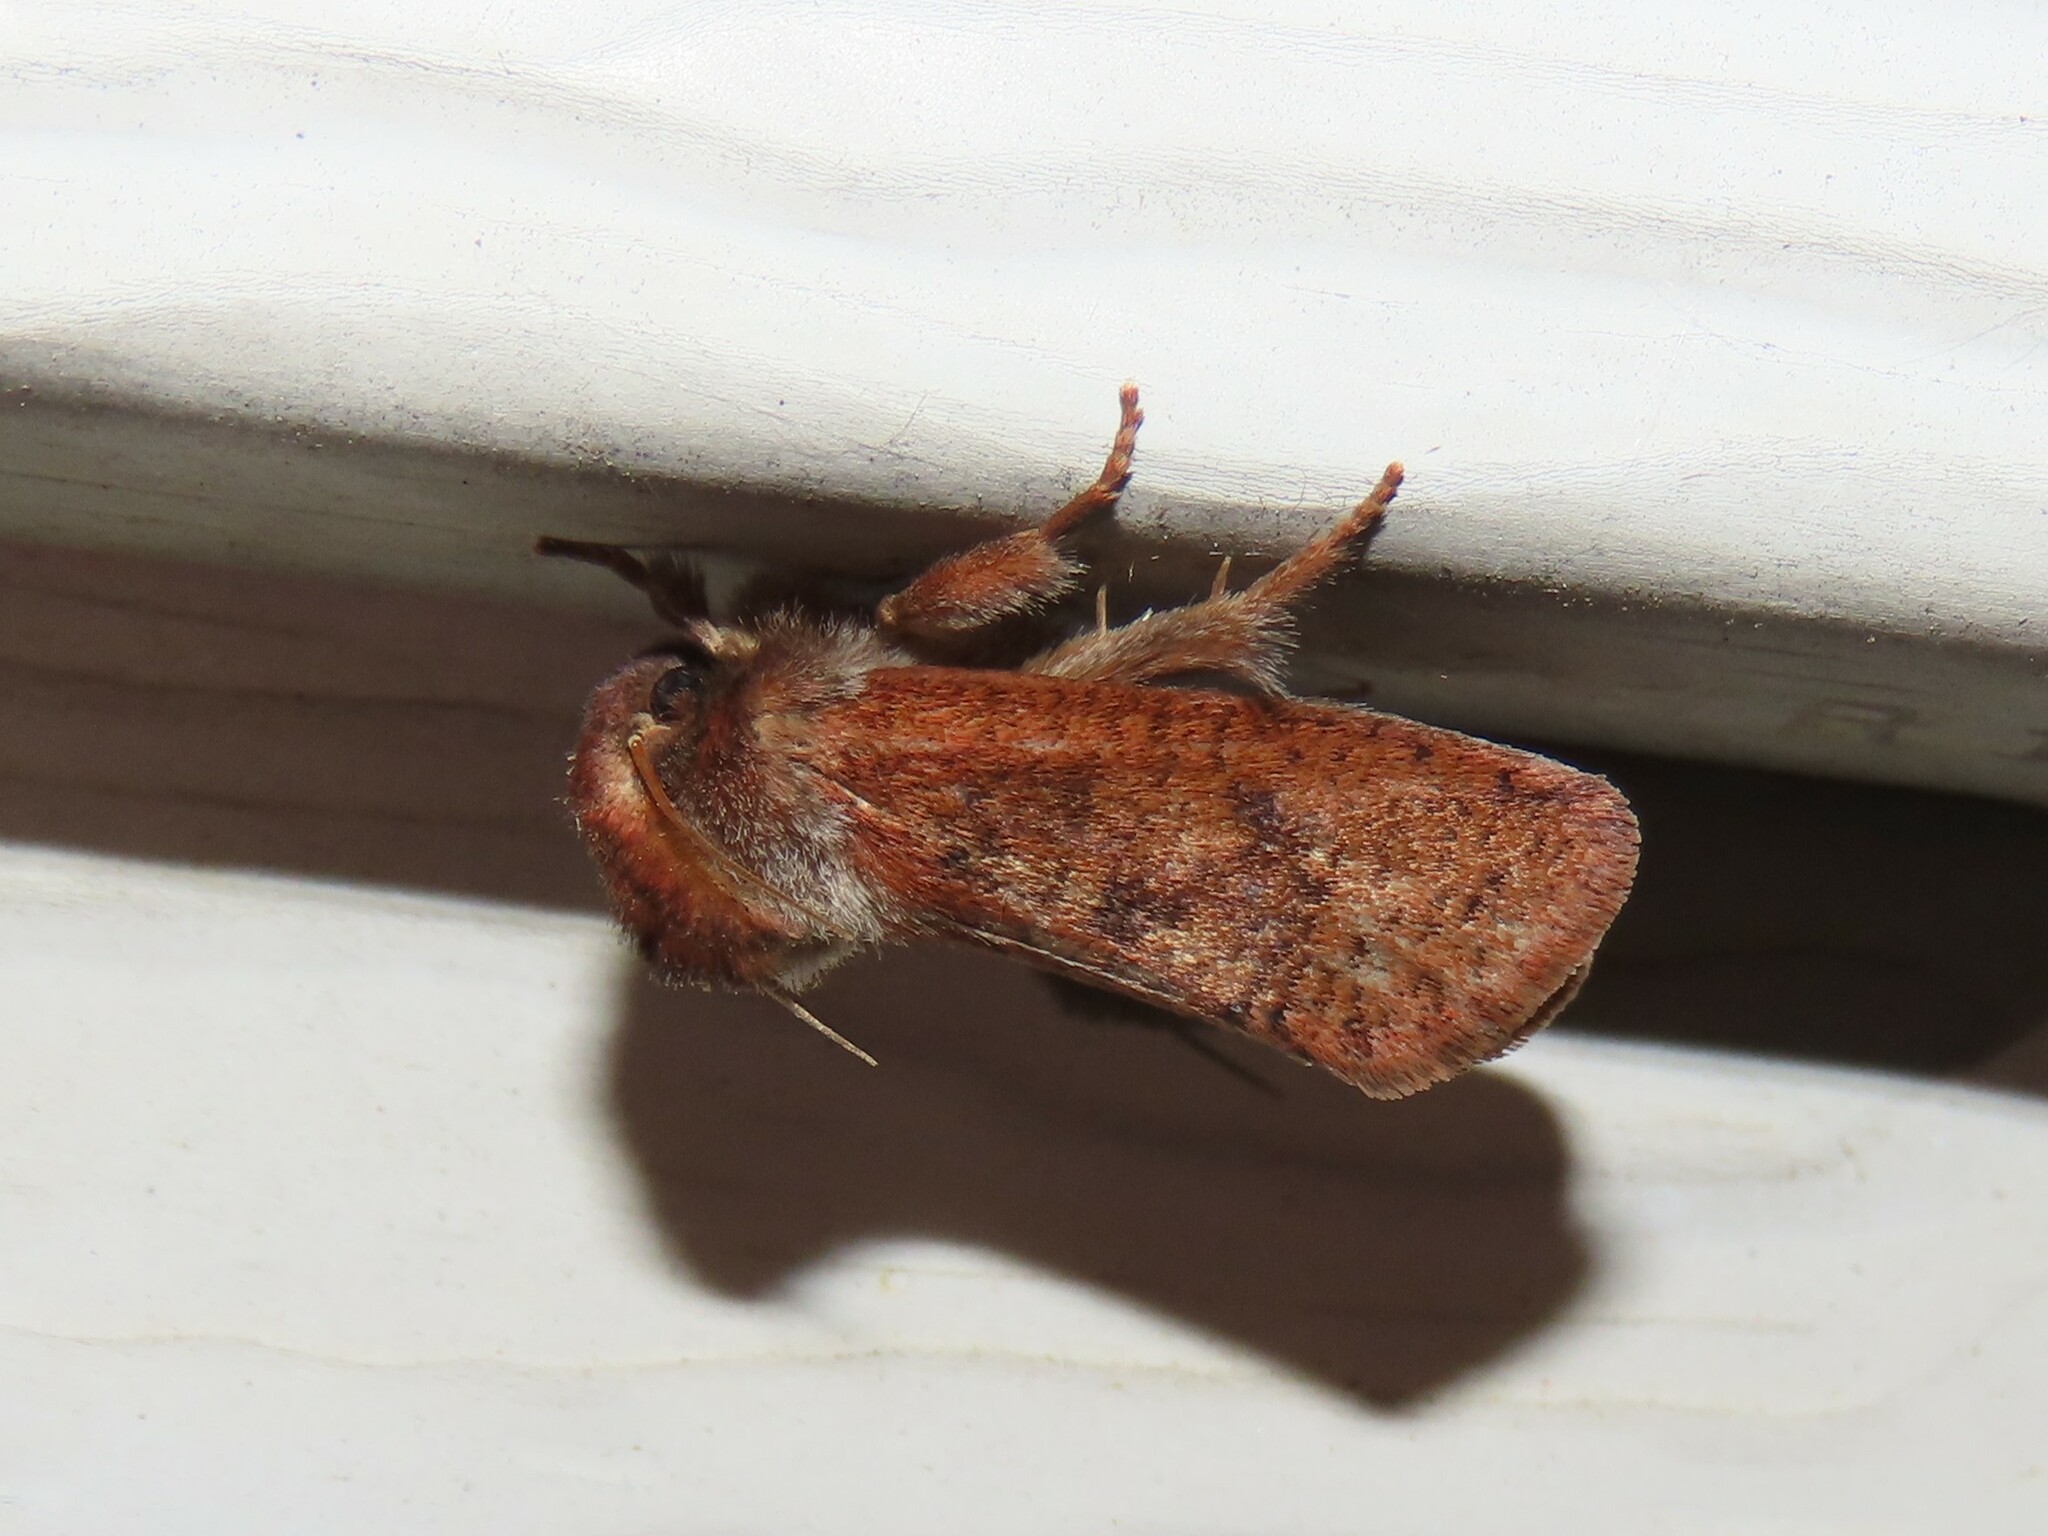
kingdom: Animalia
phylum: Arthropoda
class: Insecta
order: Lepidoptera
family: Tineidae
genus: Acrolophus
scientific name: Acrolophus plumifrontella
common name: Eastern grass tubeworm moth
